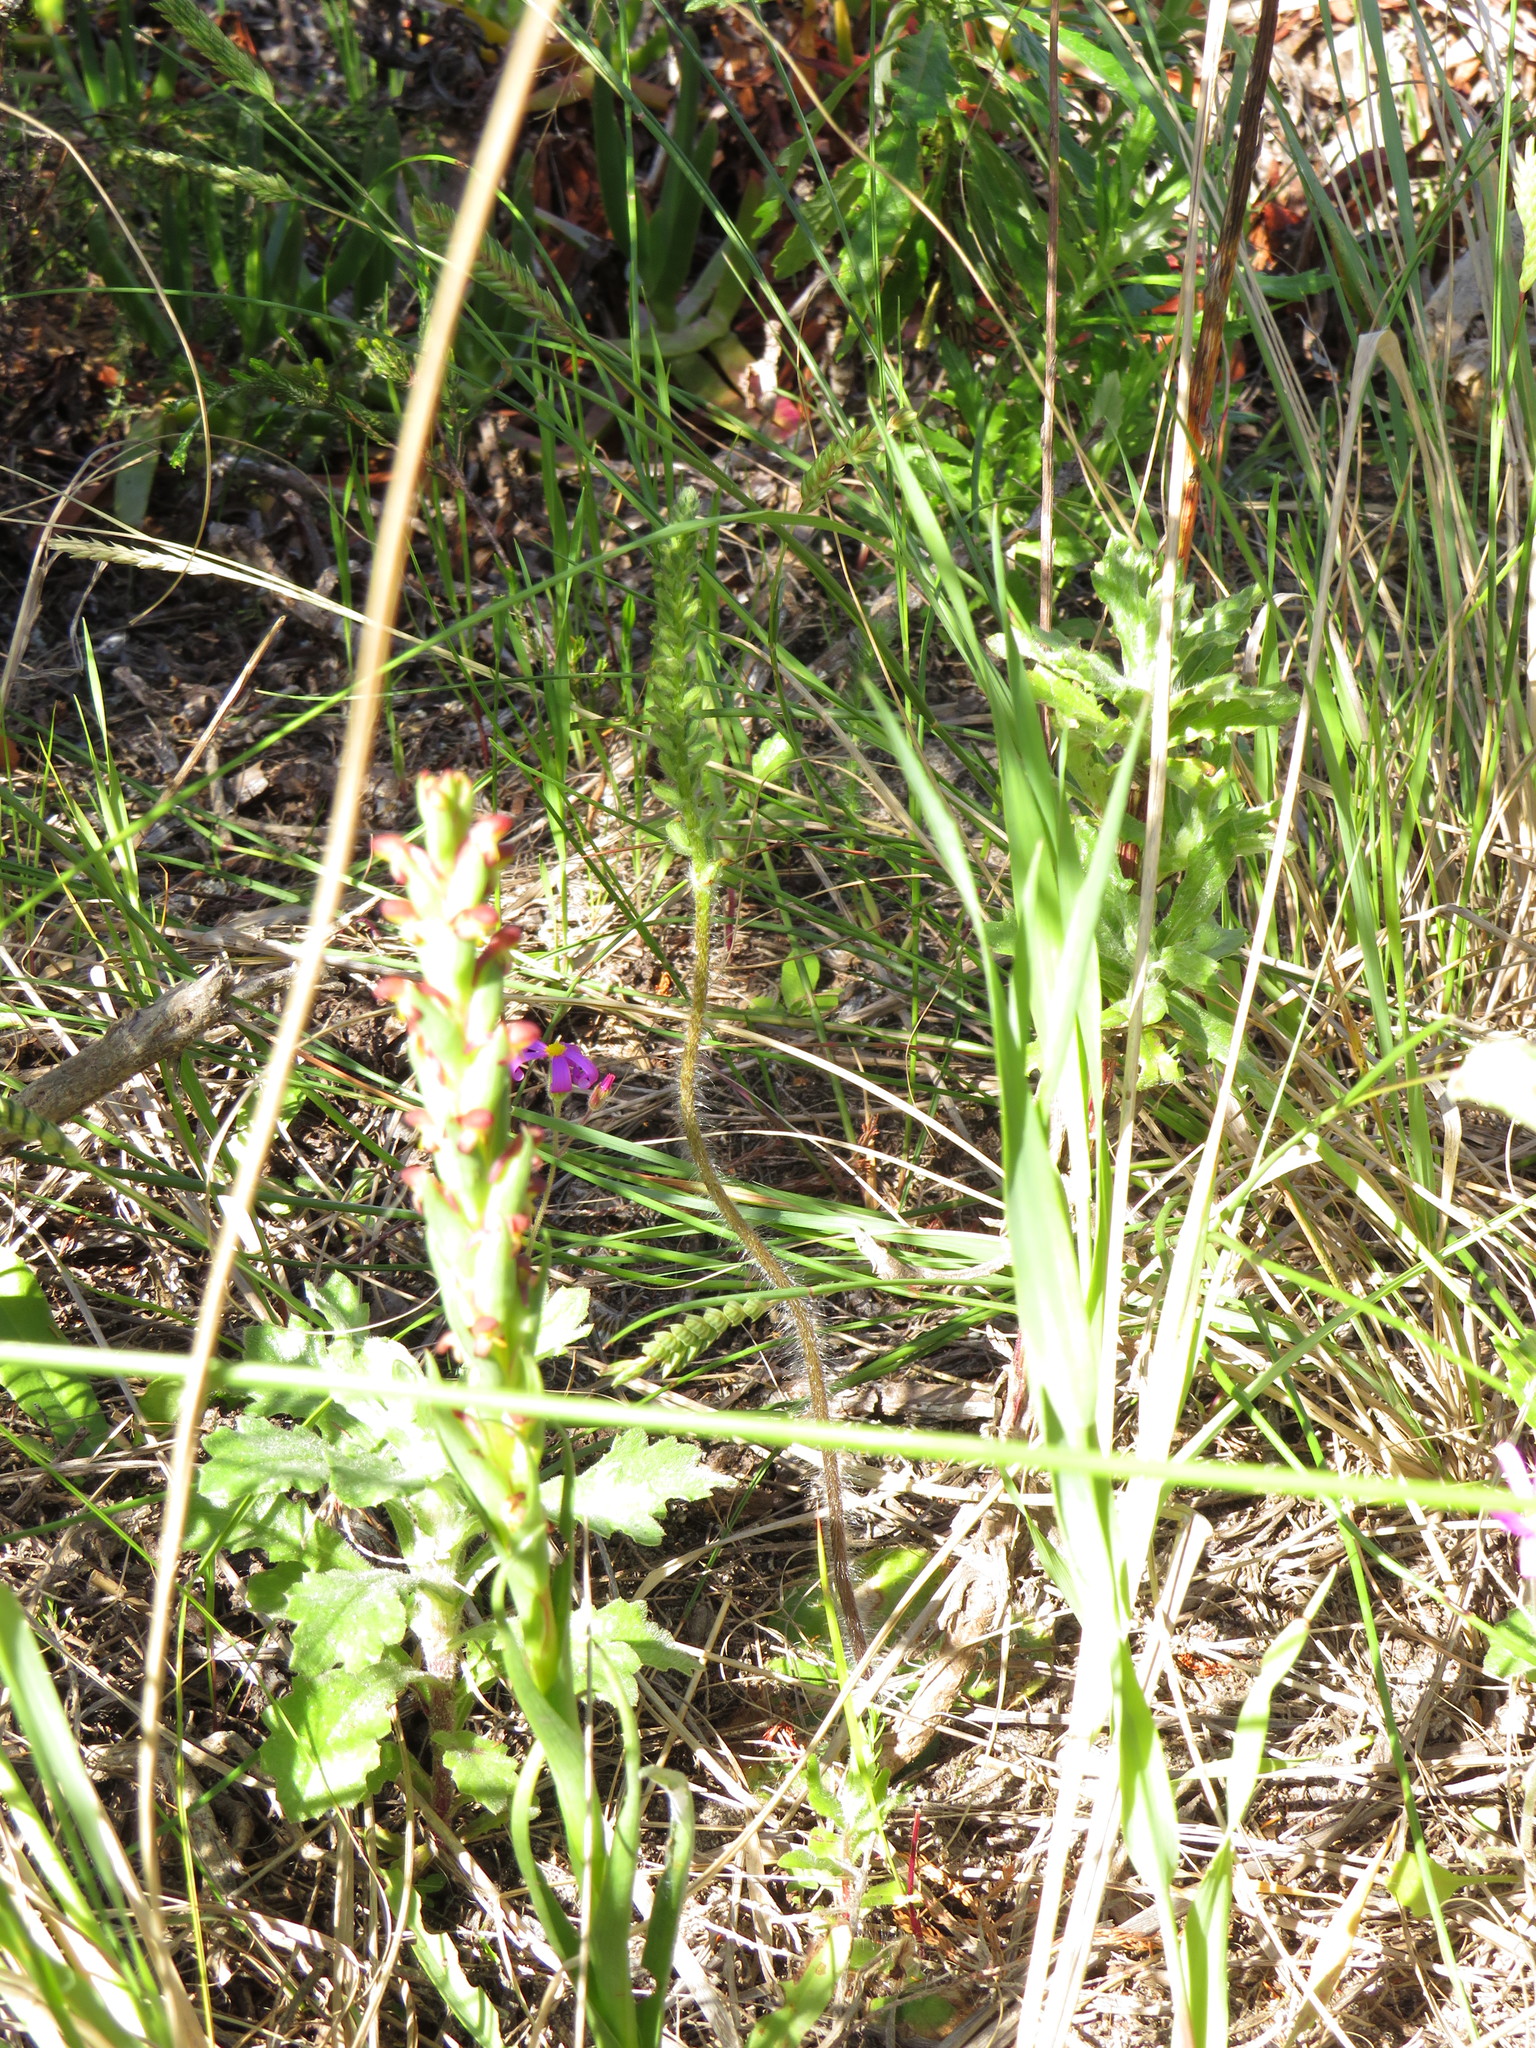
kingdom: Plantae
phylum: Tracheophyta
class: Liliopsida
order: Asparagales
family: Orchidaceae
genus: Holothrix
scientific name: Holothrix villosa
